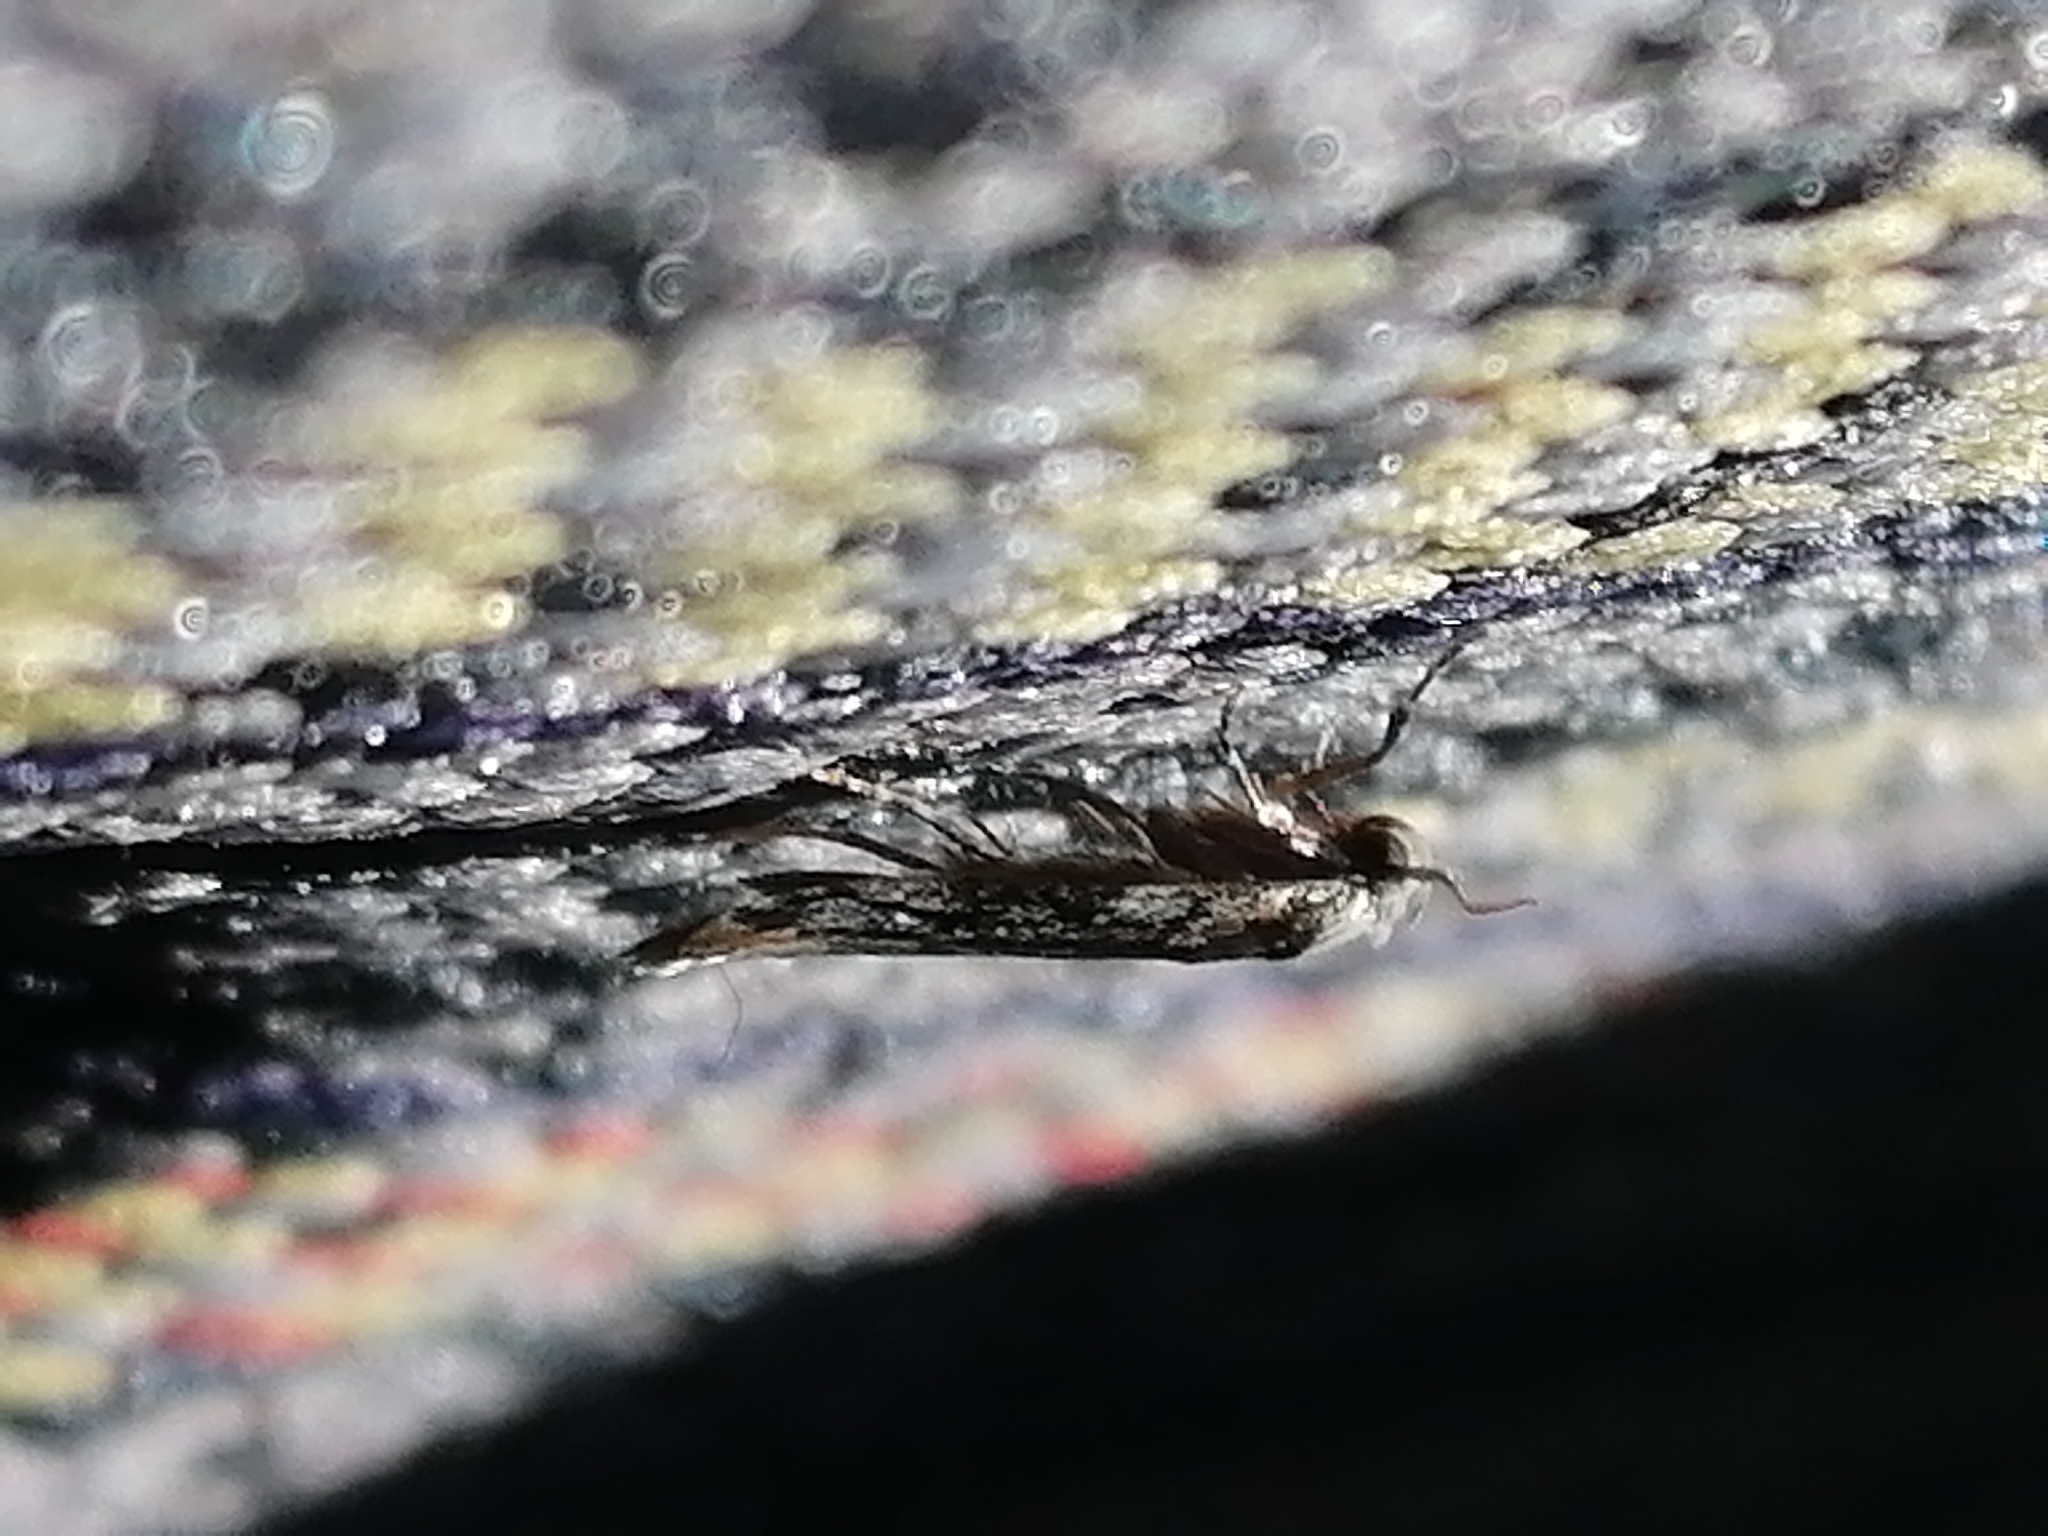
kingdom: Animalia
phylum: Arthropoda
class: Insecta
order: Lepidoptera
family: Oecophoridae
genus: Endrosis
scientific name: Endrosis sarcitrella
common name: White-shouldered house moth
